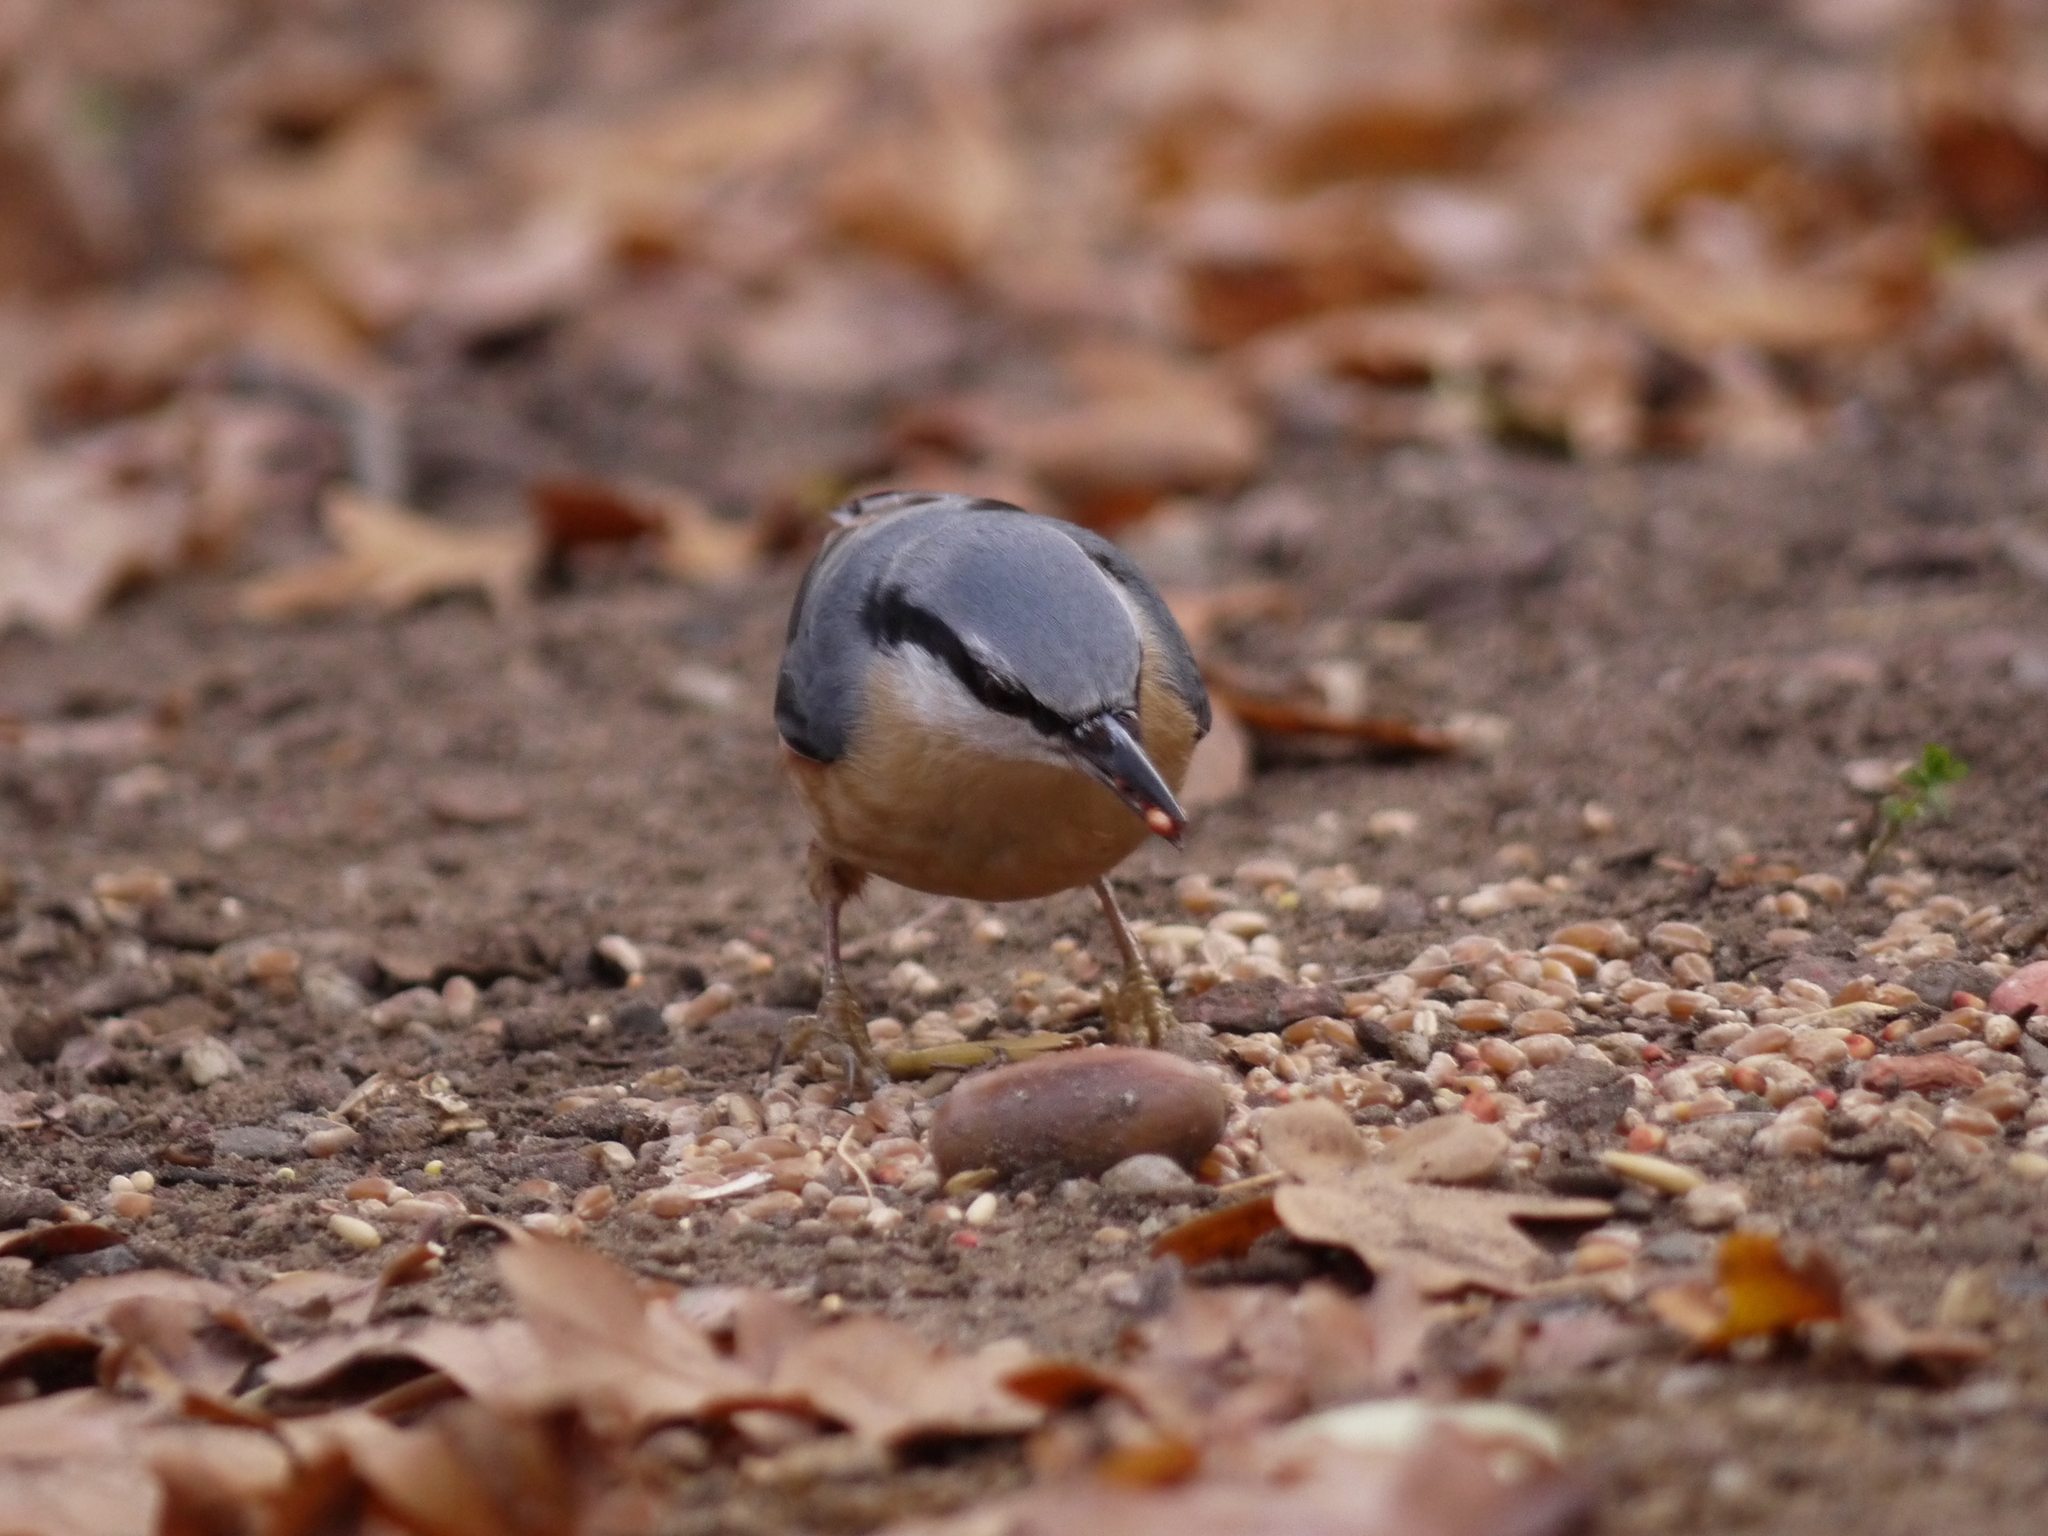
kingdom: Animalia
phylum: Chordata
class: Aves
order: Passeriformes
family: Sittidae
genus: Sitta
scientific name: Sitta europaea
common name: Eurasian nuthatch
